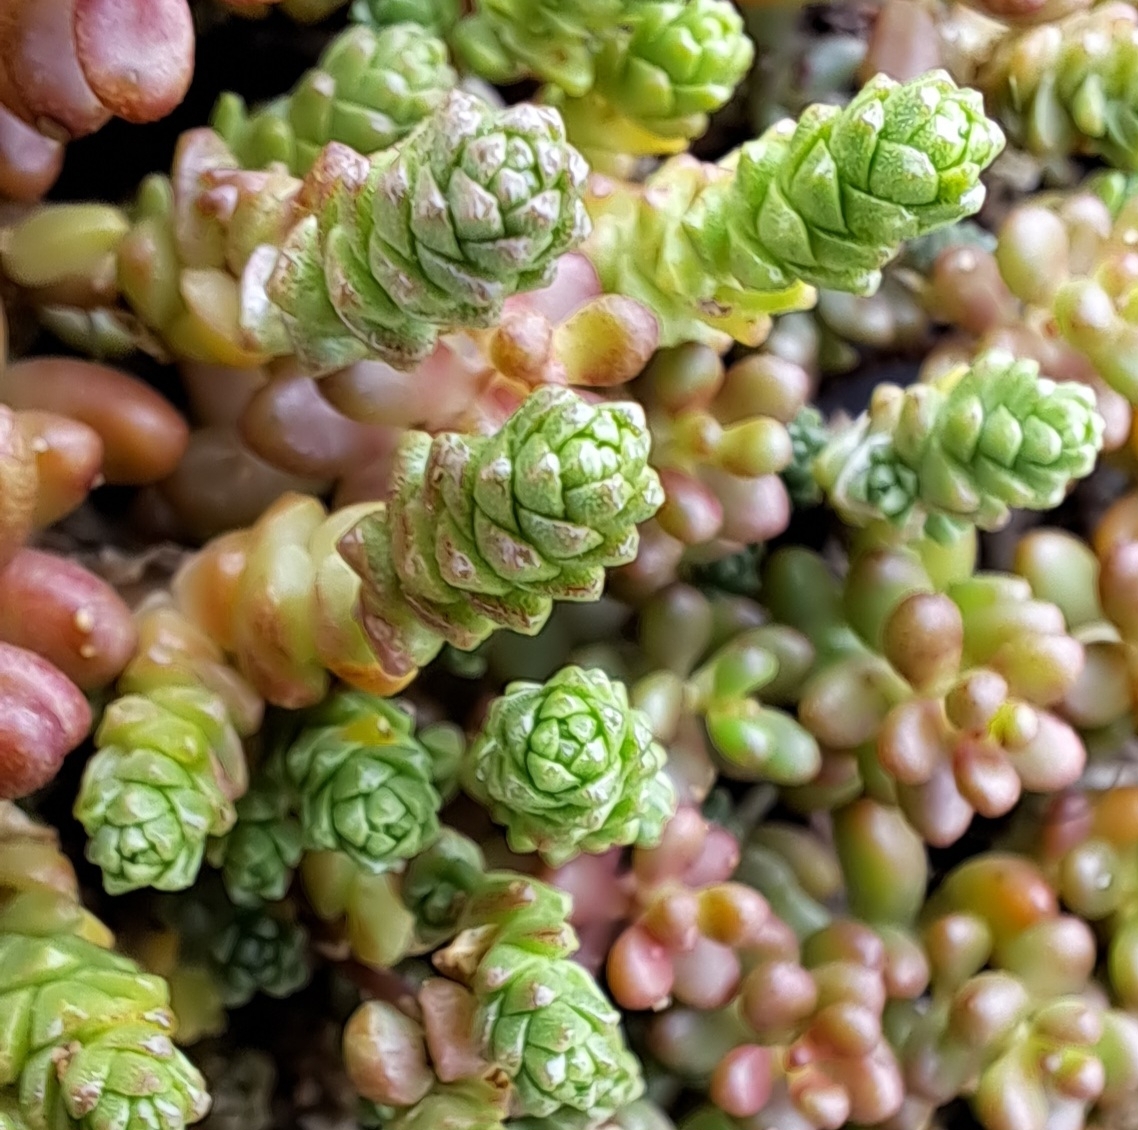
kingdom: Plantae
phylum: Tracheophyta
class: Magnoliopsida
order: Saxifragales
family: Crassulaceae
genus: Sedum
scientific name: Sedum acre
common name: Biting stonecrop
